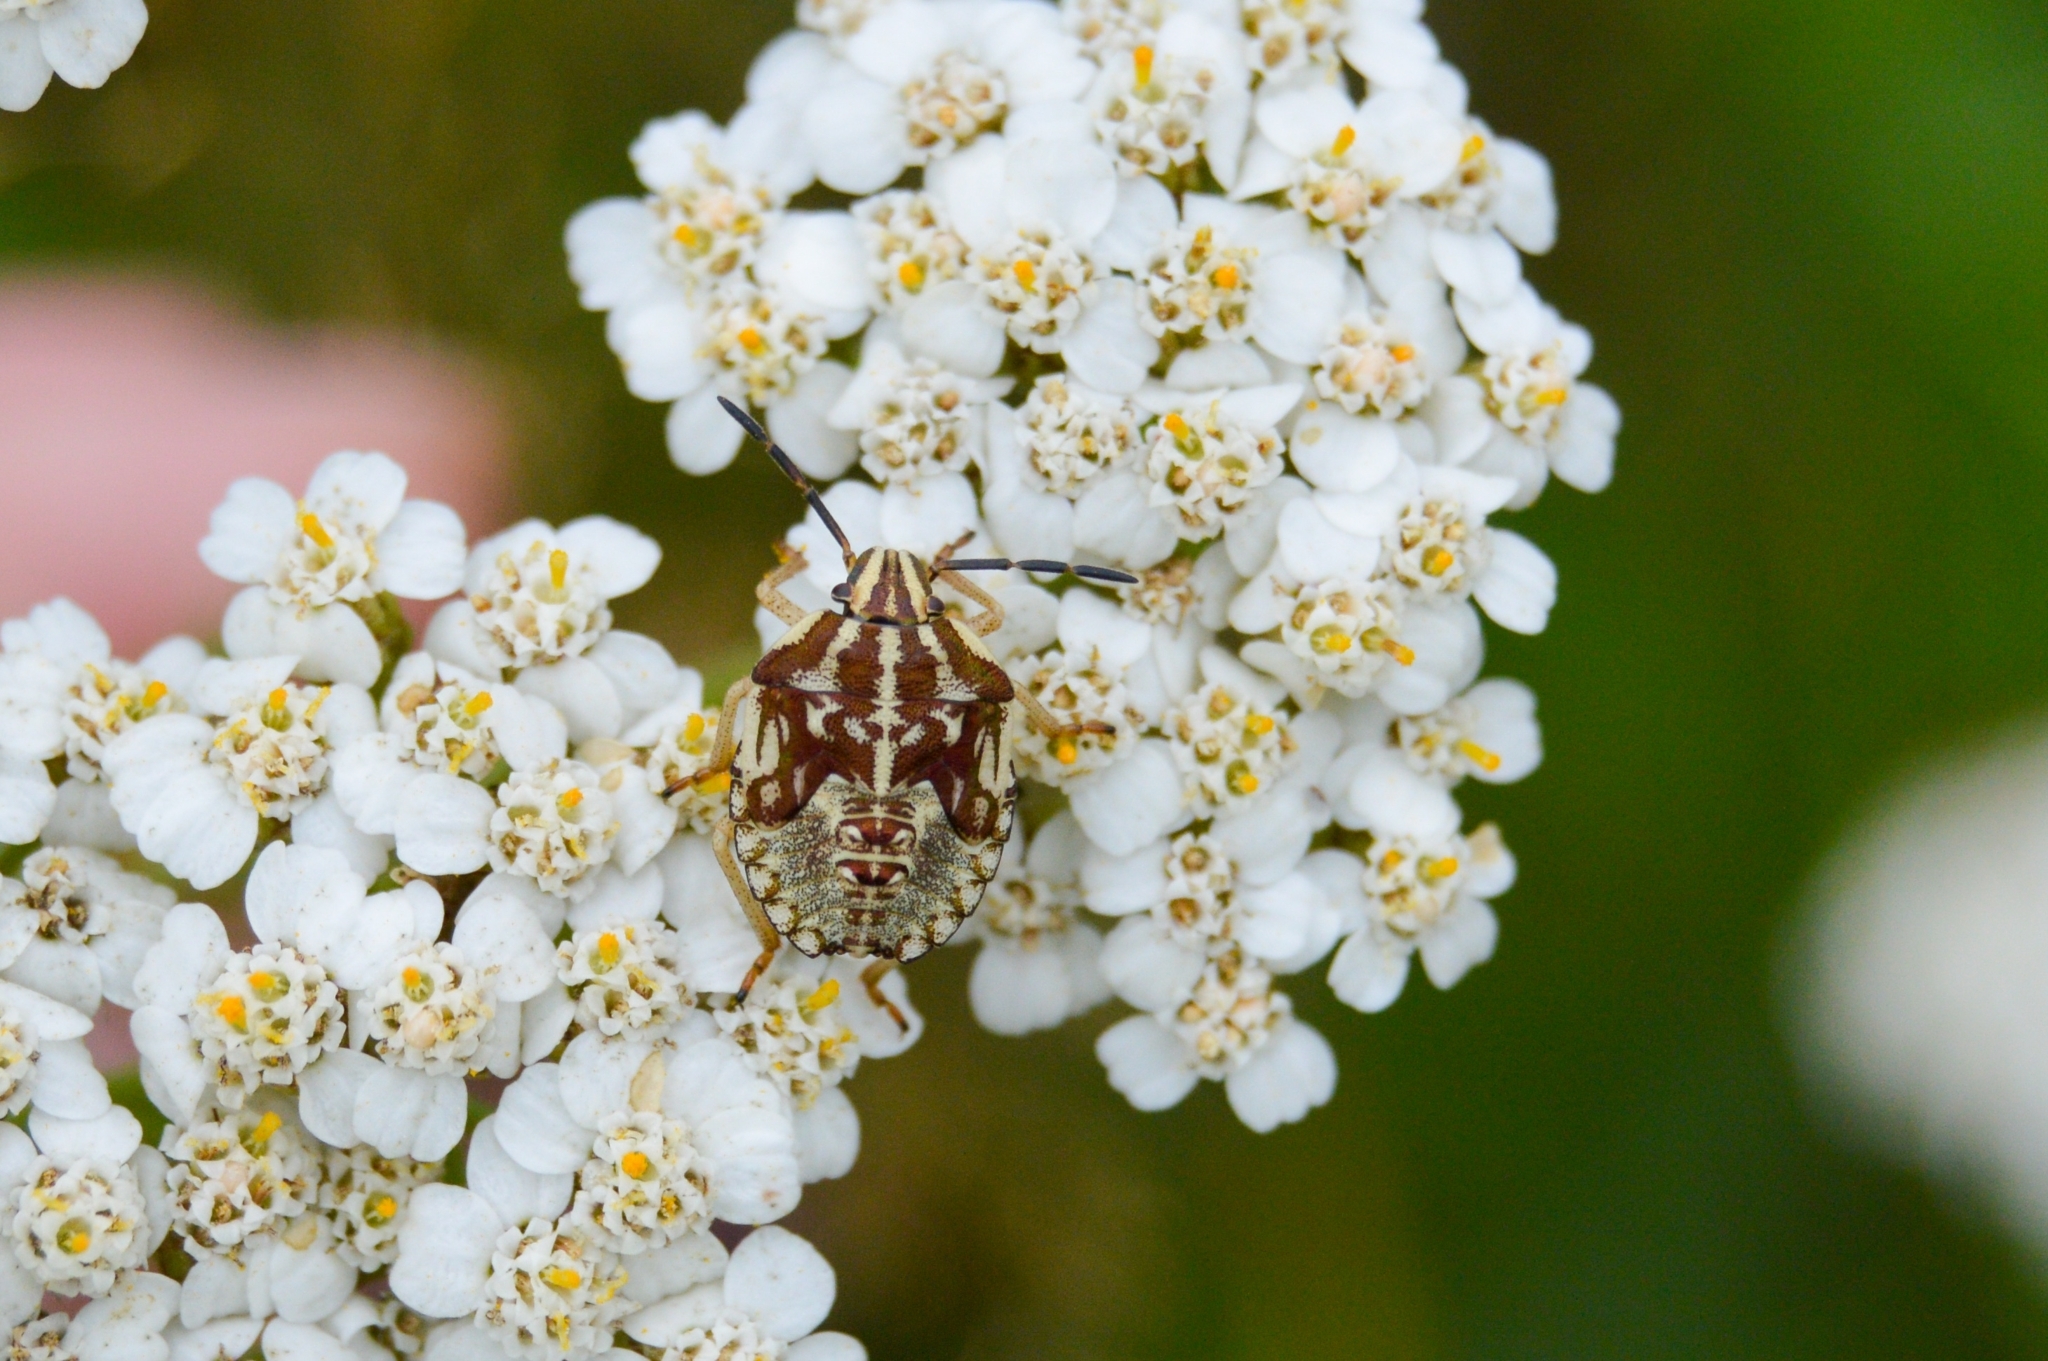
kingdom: Animalia
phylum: Arthropoda
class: Insecta
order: Hemiptera
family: Pentatomidae
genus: Carpocoris
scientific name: Carpocoris purpureipennis
